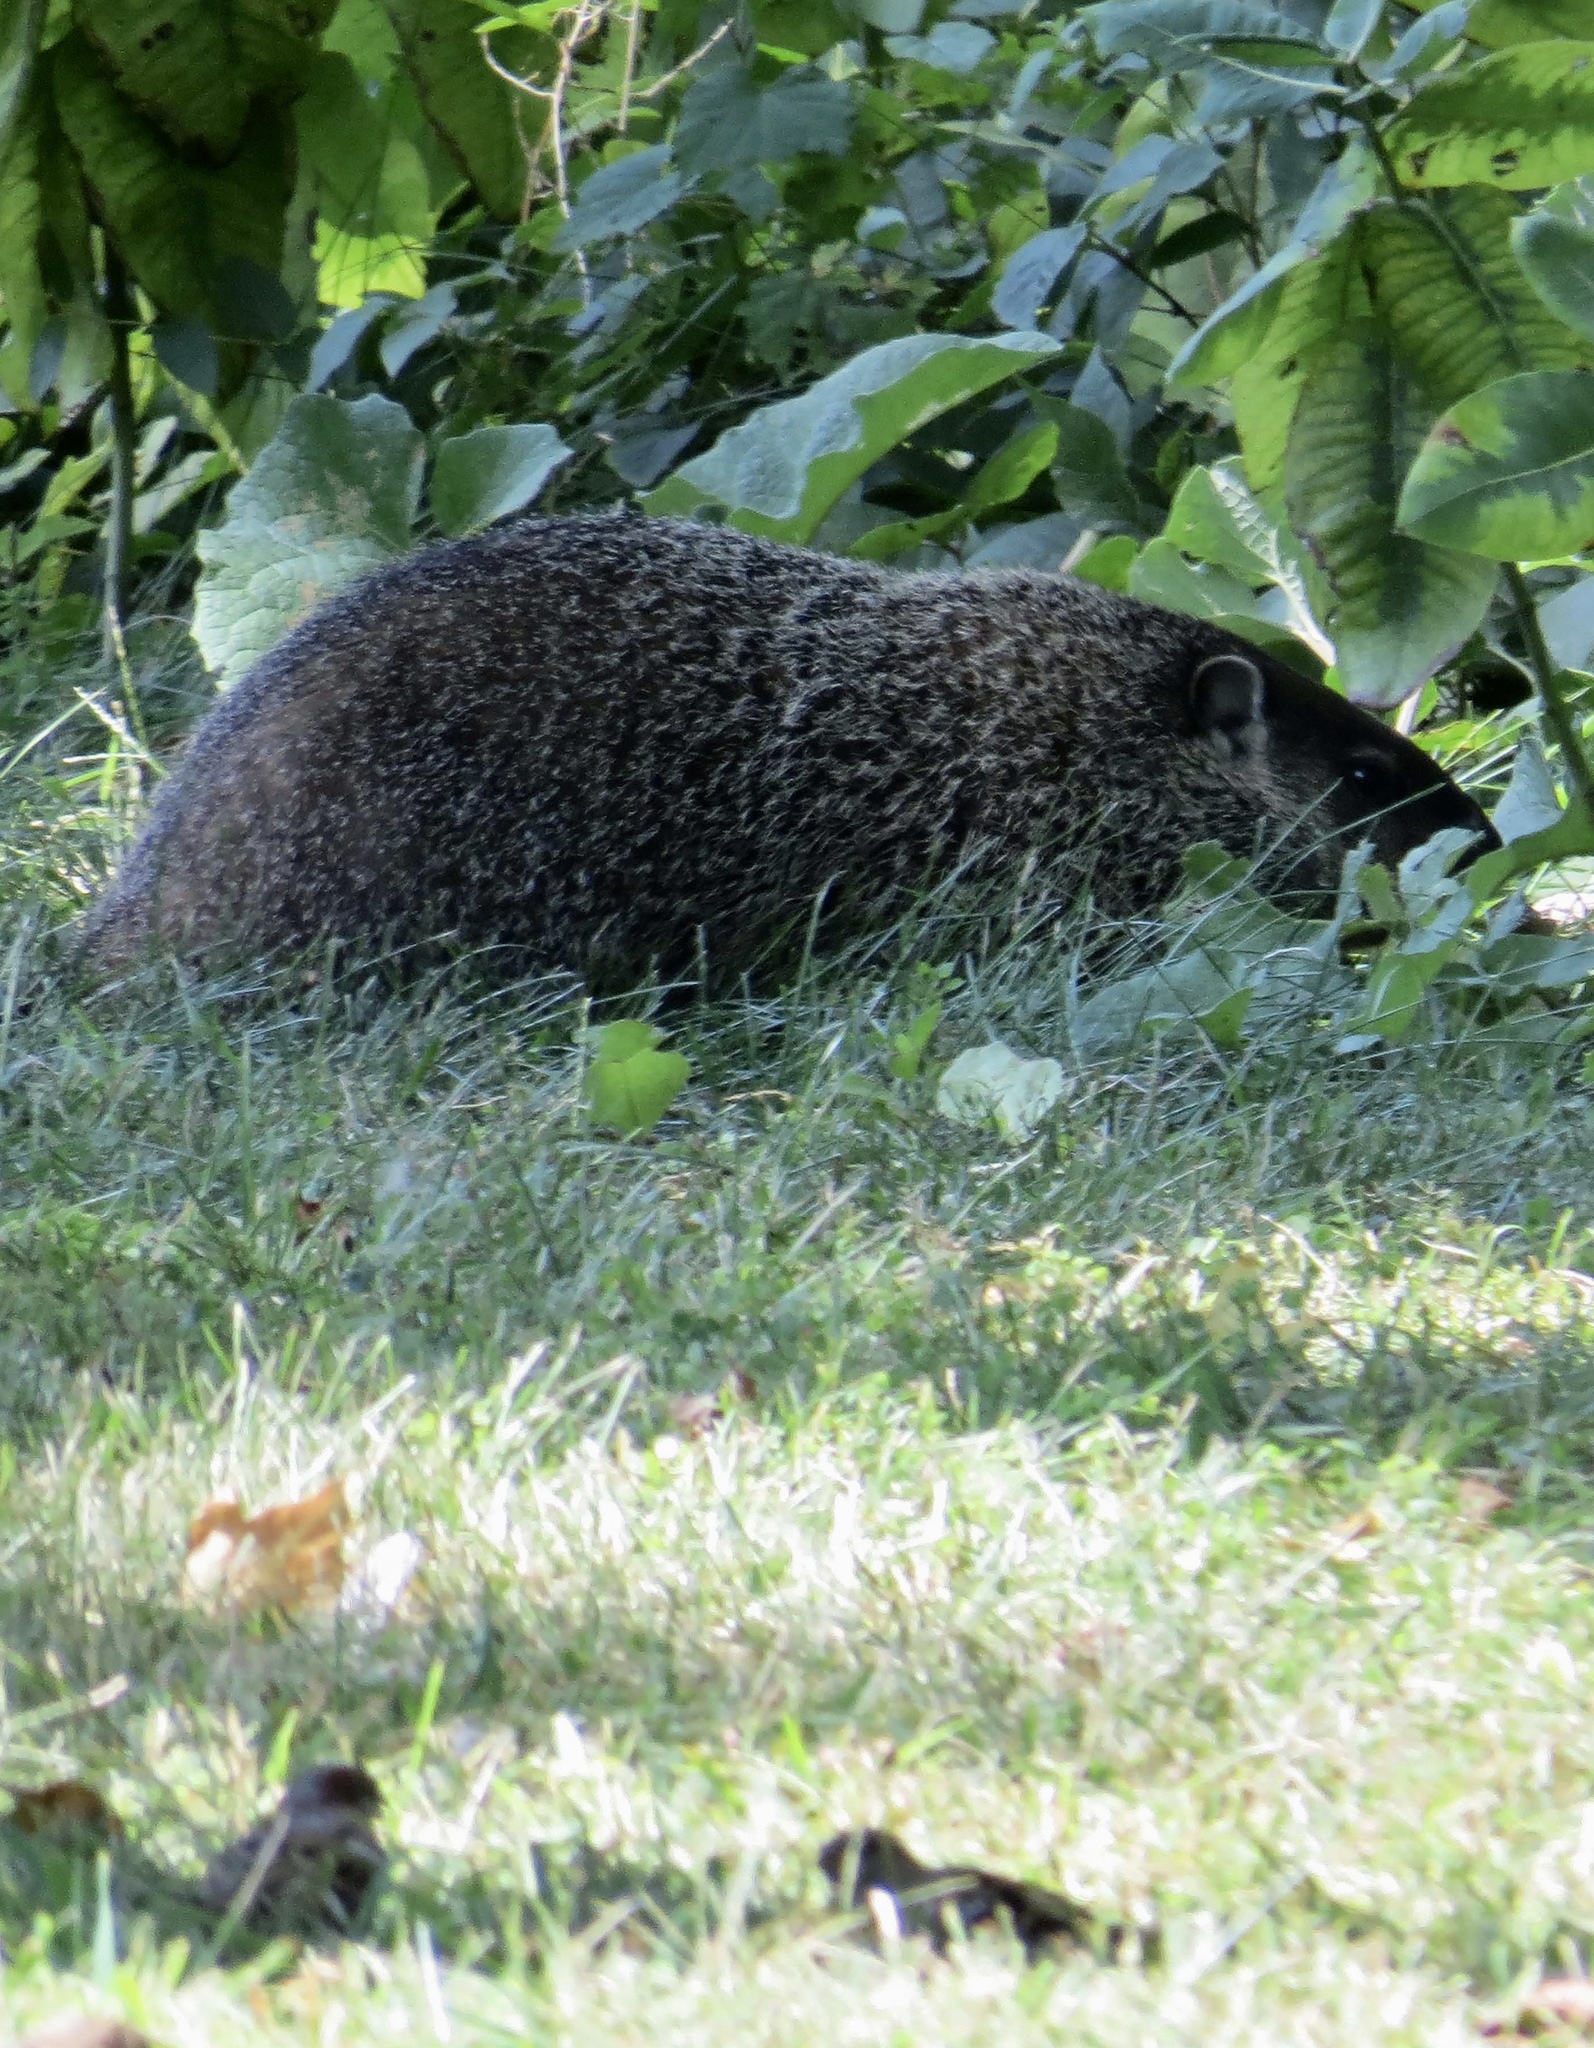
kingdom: Animalia
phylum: Chordata
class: Mammalia
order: Rodentia
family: Sciuridae
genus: Marmota
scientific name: Marmota monax
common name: Groundhog
